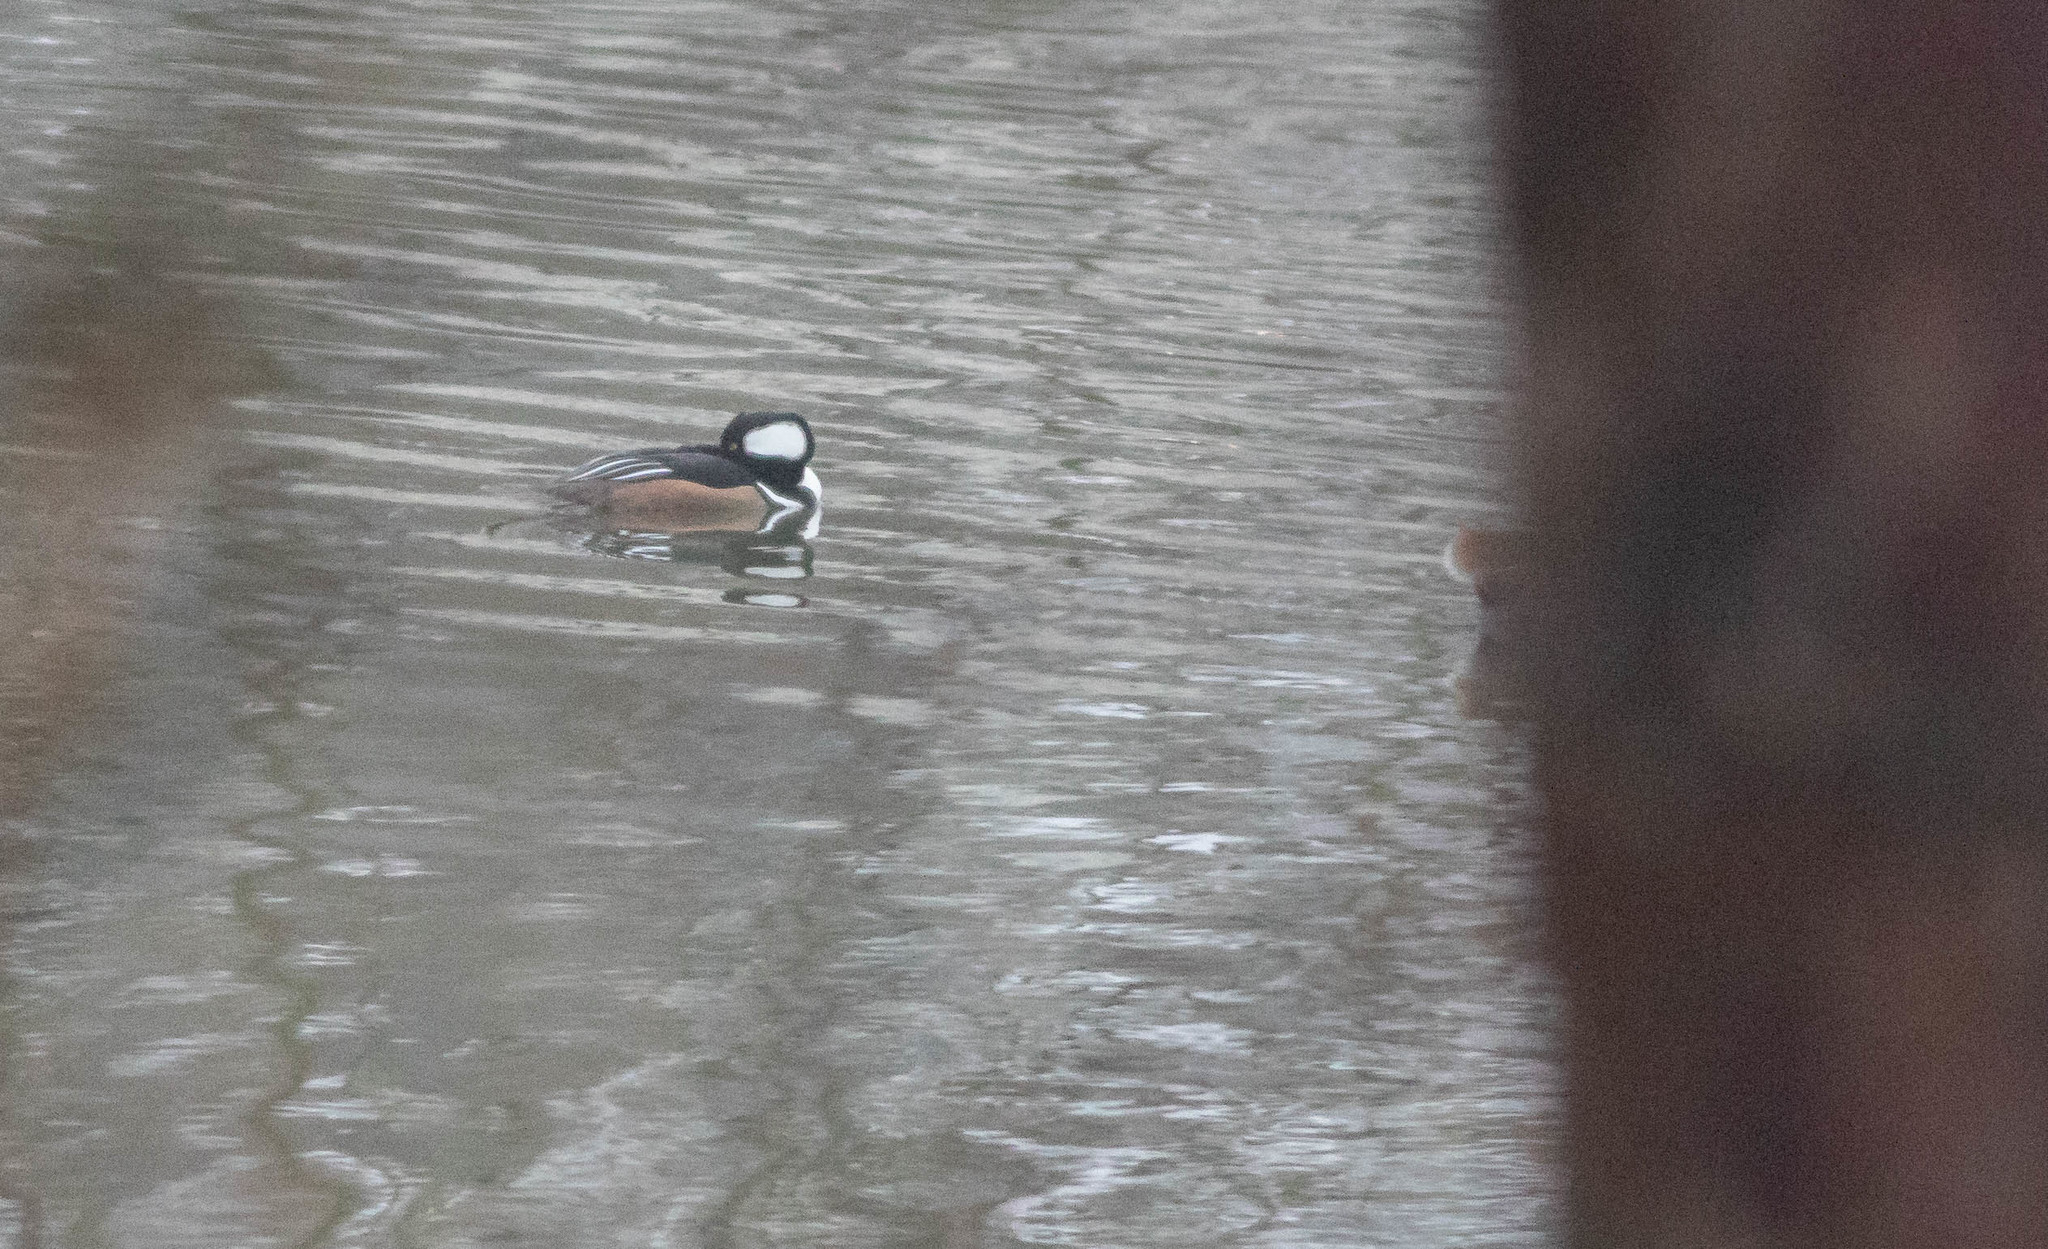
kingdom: Animalia
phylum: Chordata
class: Aves
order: Anseriformes
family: Anatidae
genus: Lophodytes
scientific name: Lophodytes cucullatus
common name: Hooded merganser
